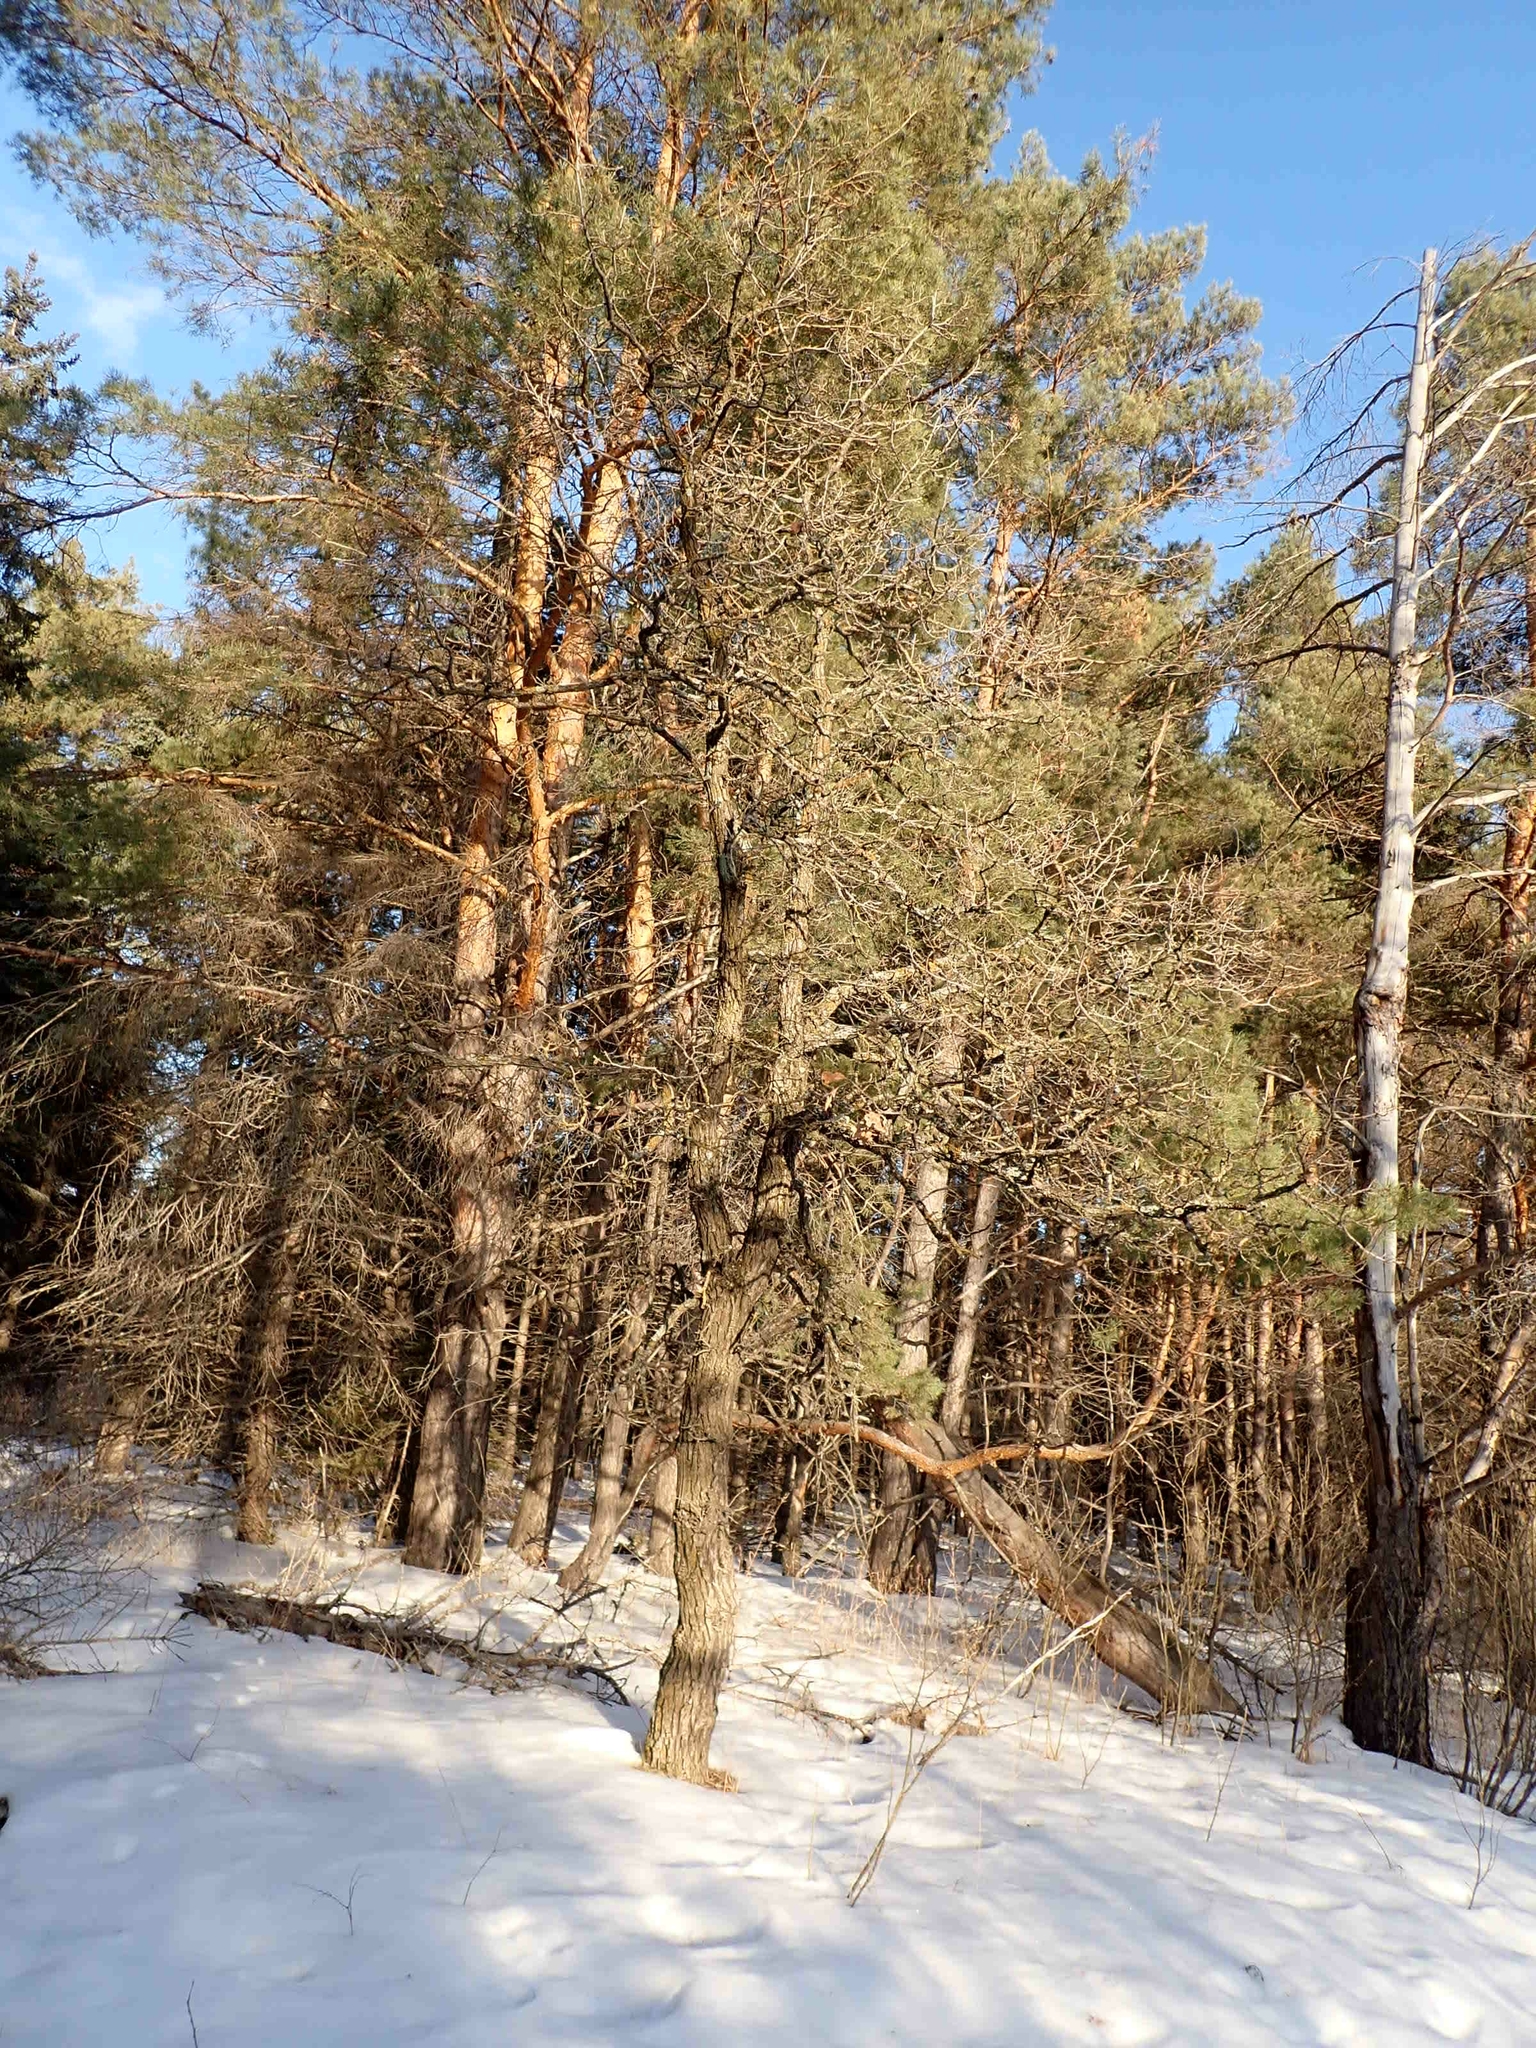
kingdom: Plantae
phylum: Tracheophyta
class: Magnoliopsida
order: Fagales
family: Fagaceae
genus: Quercus
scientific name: Quercus macrocarpa
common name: Bur oak
